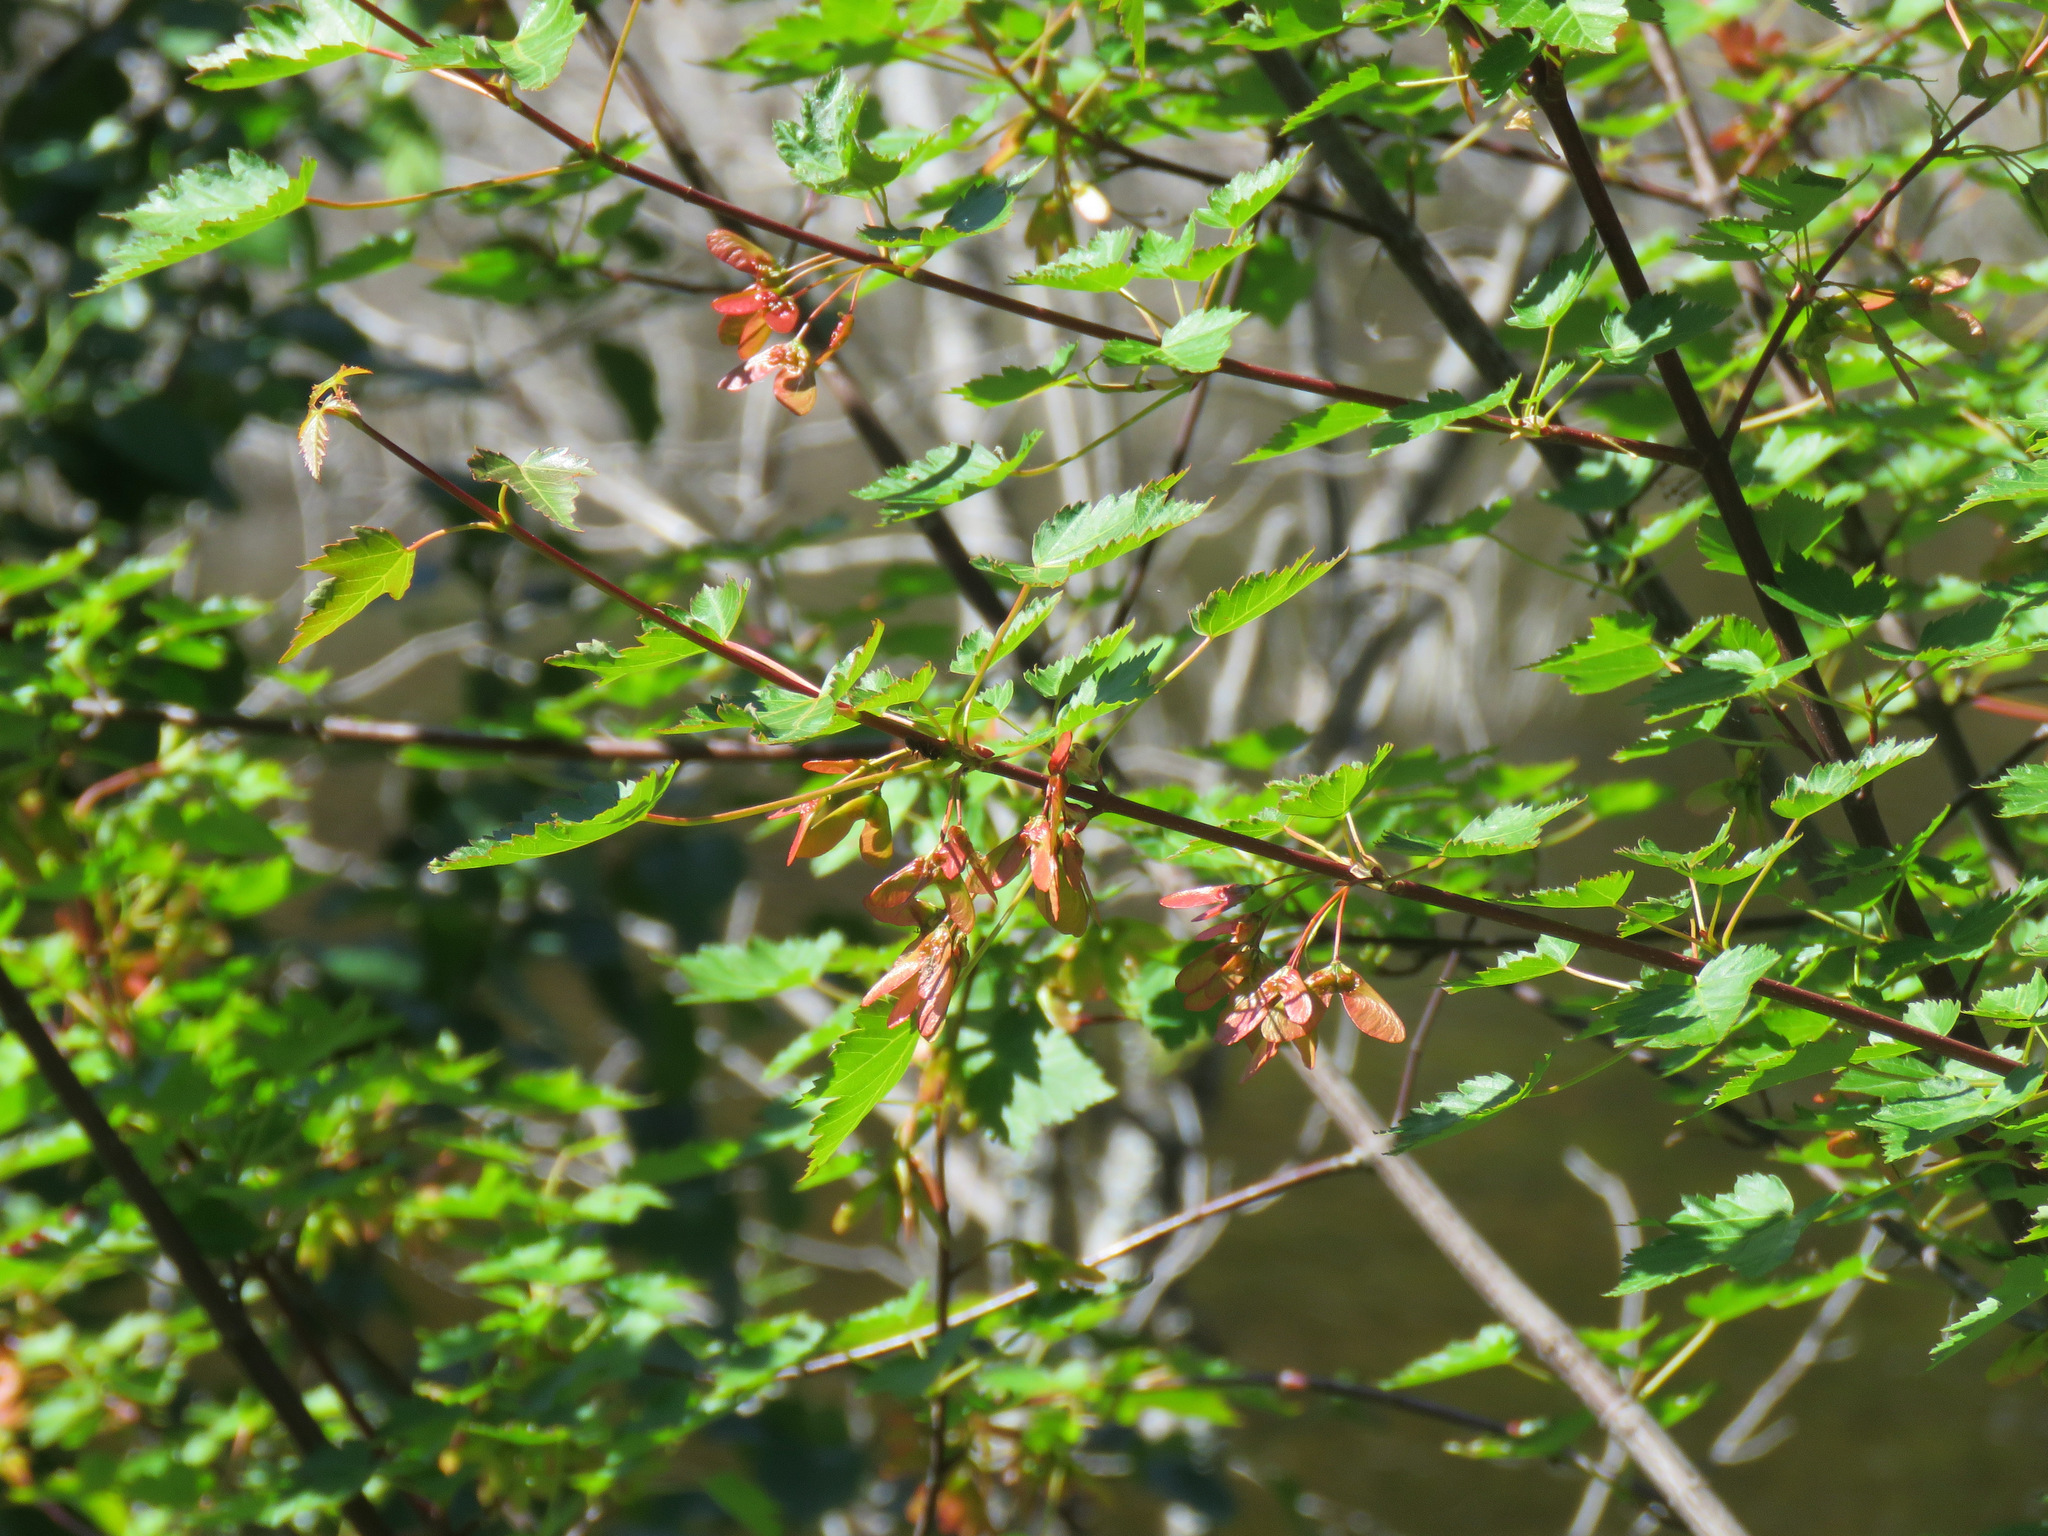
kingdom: Plantae
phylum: Tracheophyta
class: Magnoliopsida
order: Sapindales
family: Sapindaceae
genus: Acer
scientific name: Acer glabrum
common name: Rocky mountain maple
